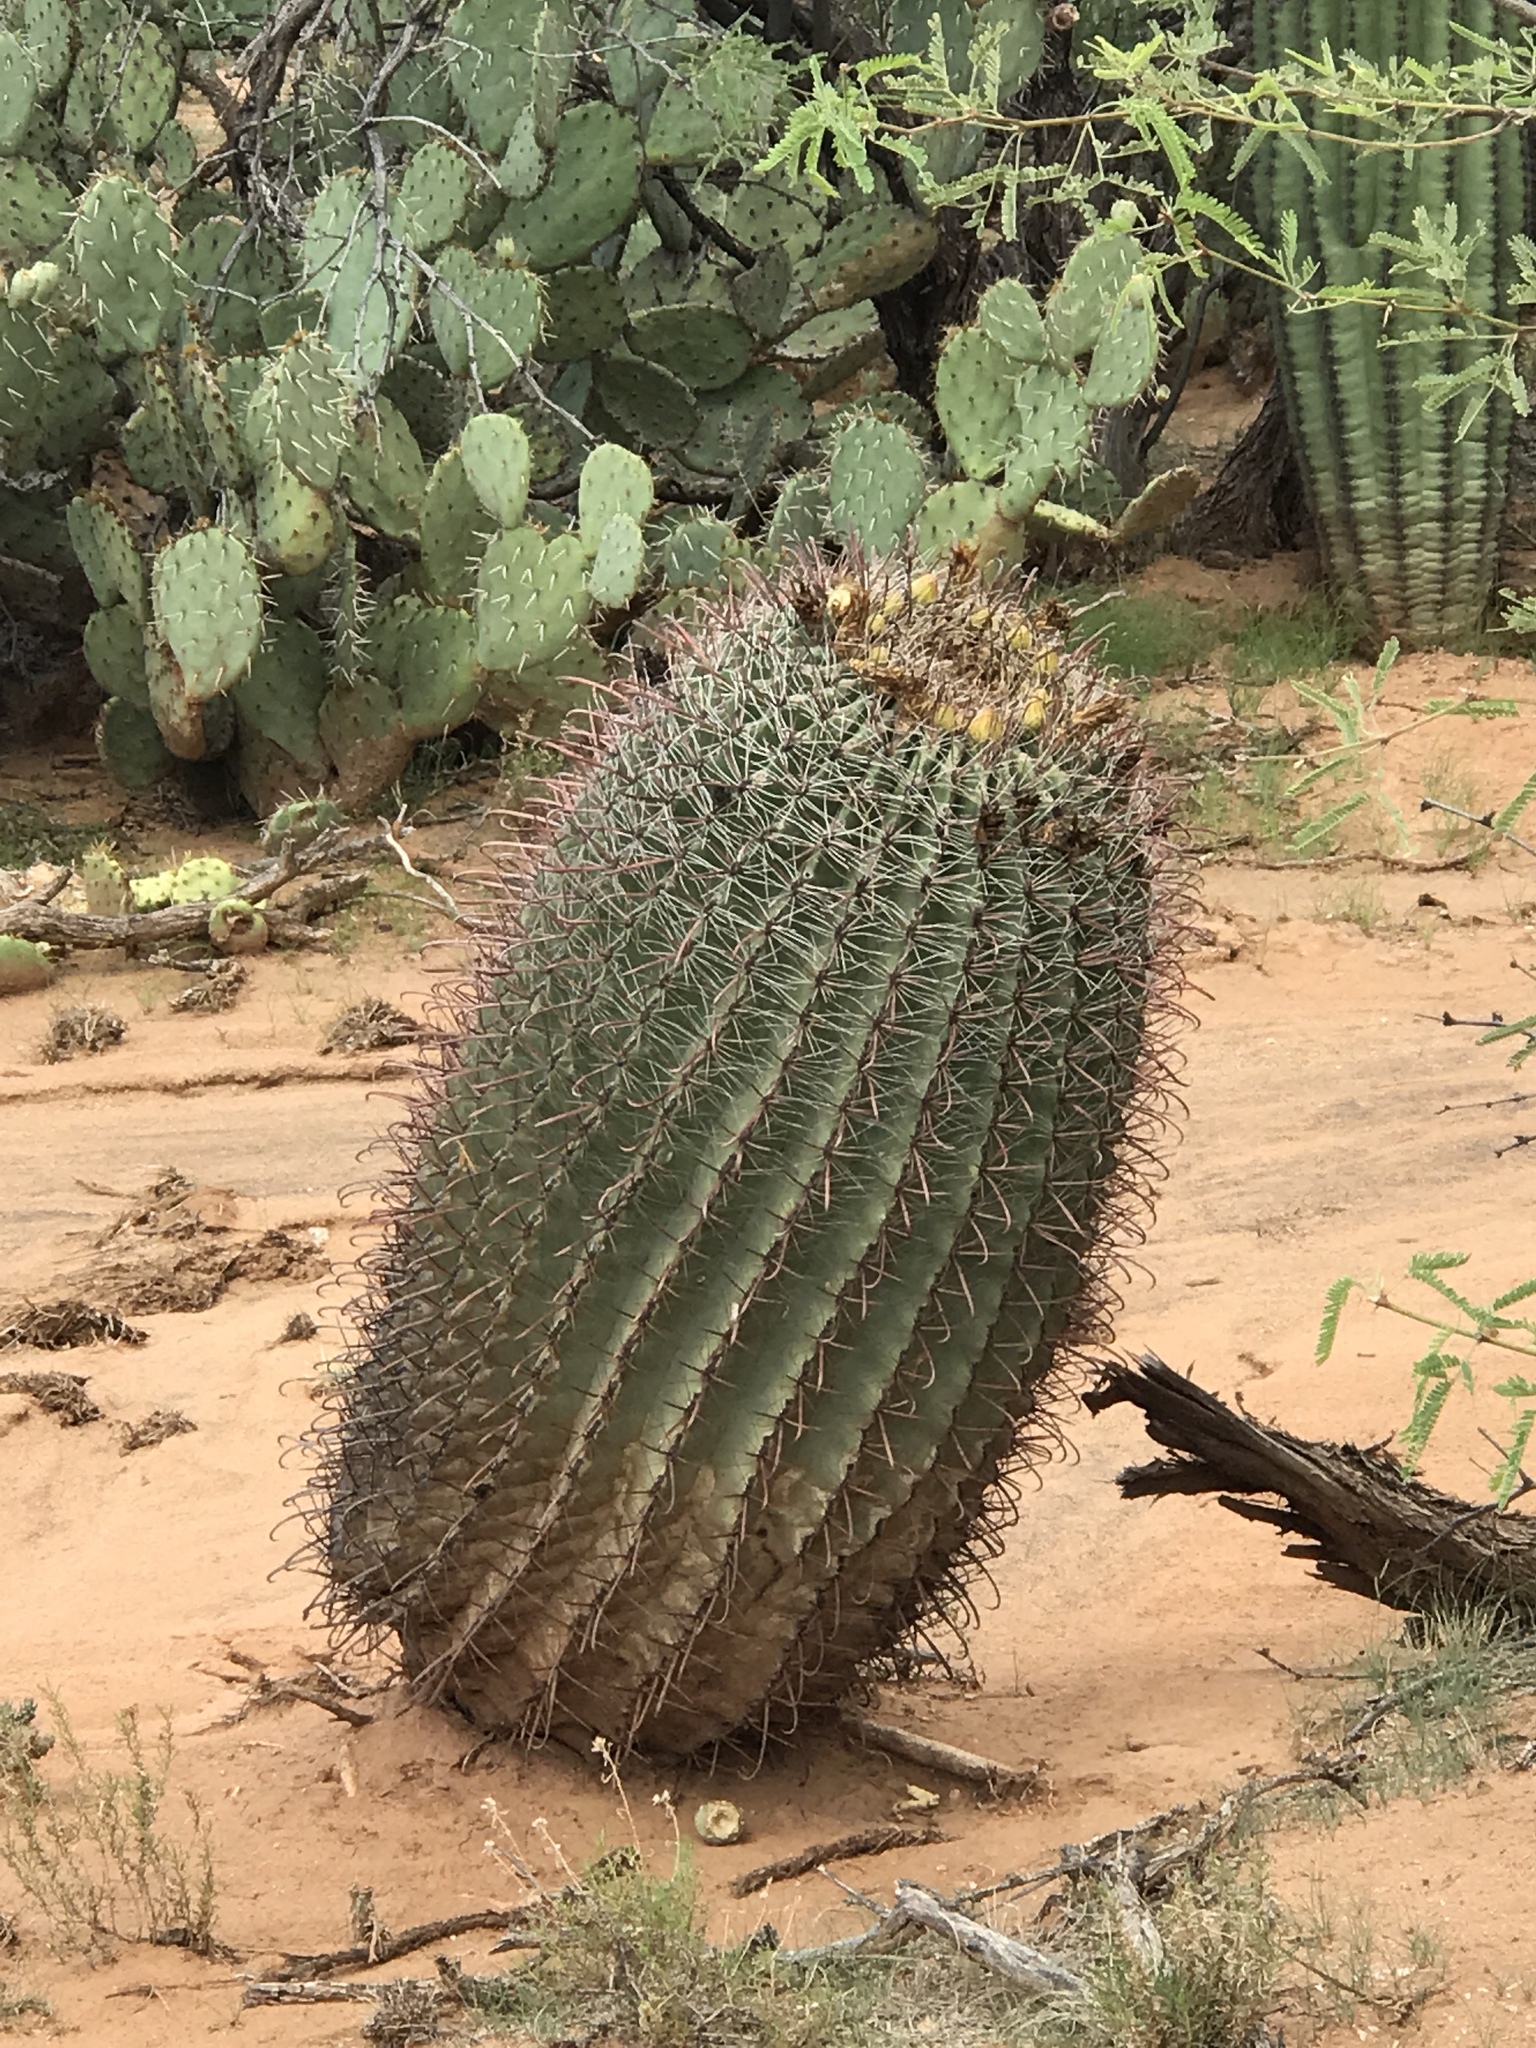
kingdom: Plantae
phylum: Tracheophyta
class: Magnoliopsida
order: Caryophyllales
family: Cactaceae
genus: Ferocactus
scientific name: Ferocactus wislizeni
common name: Candy barrel cactus
